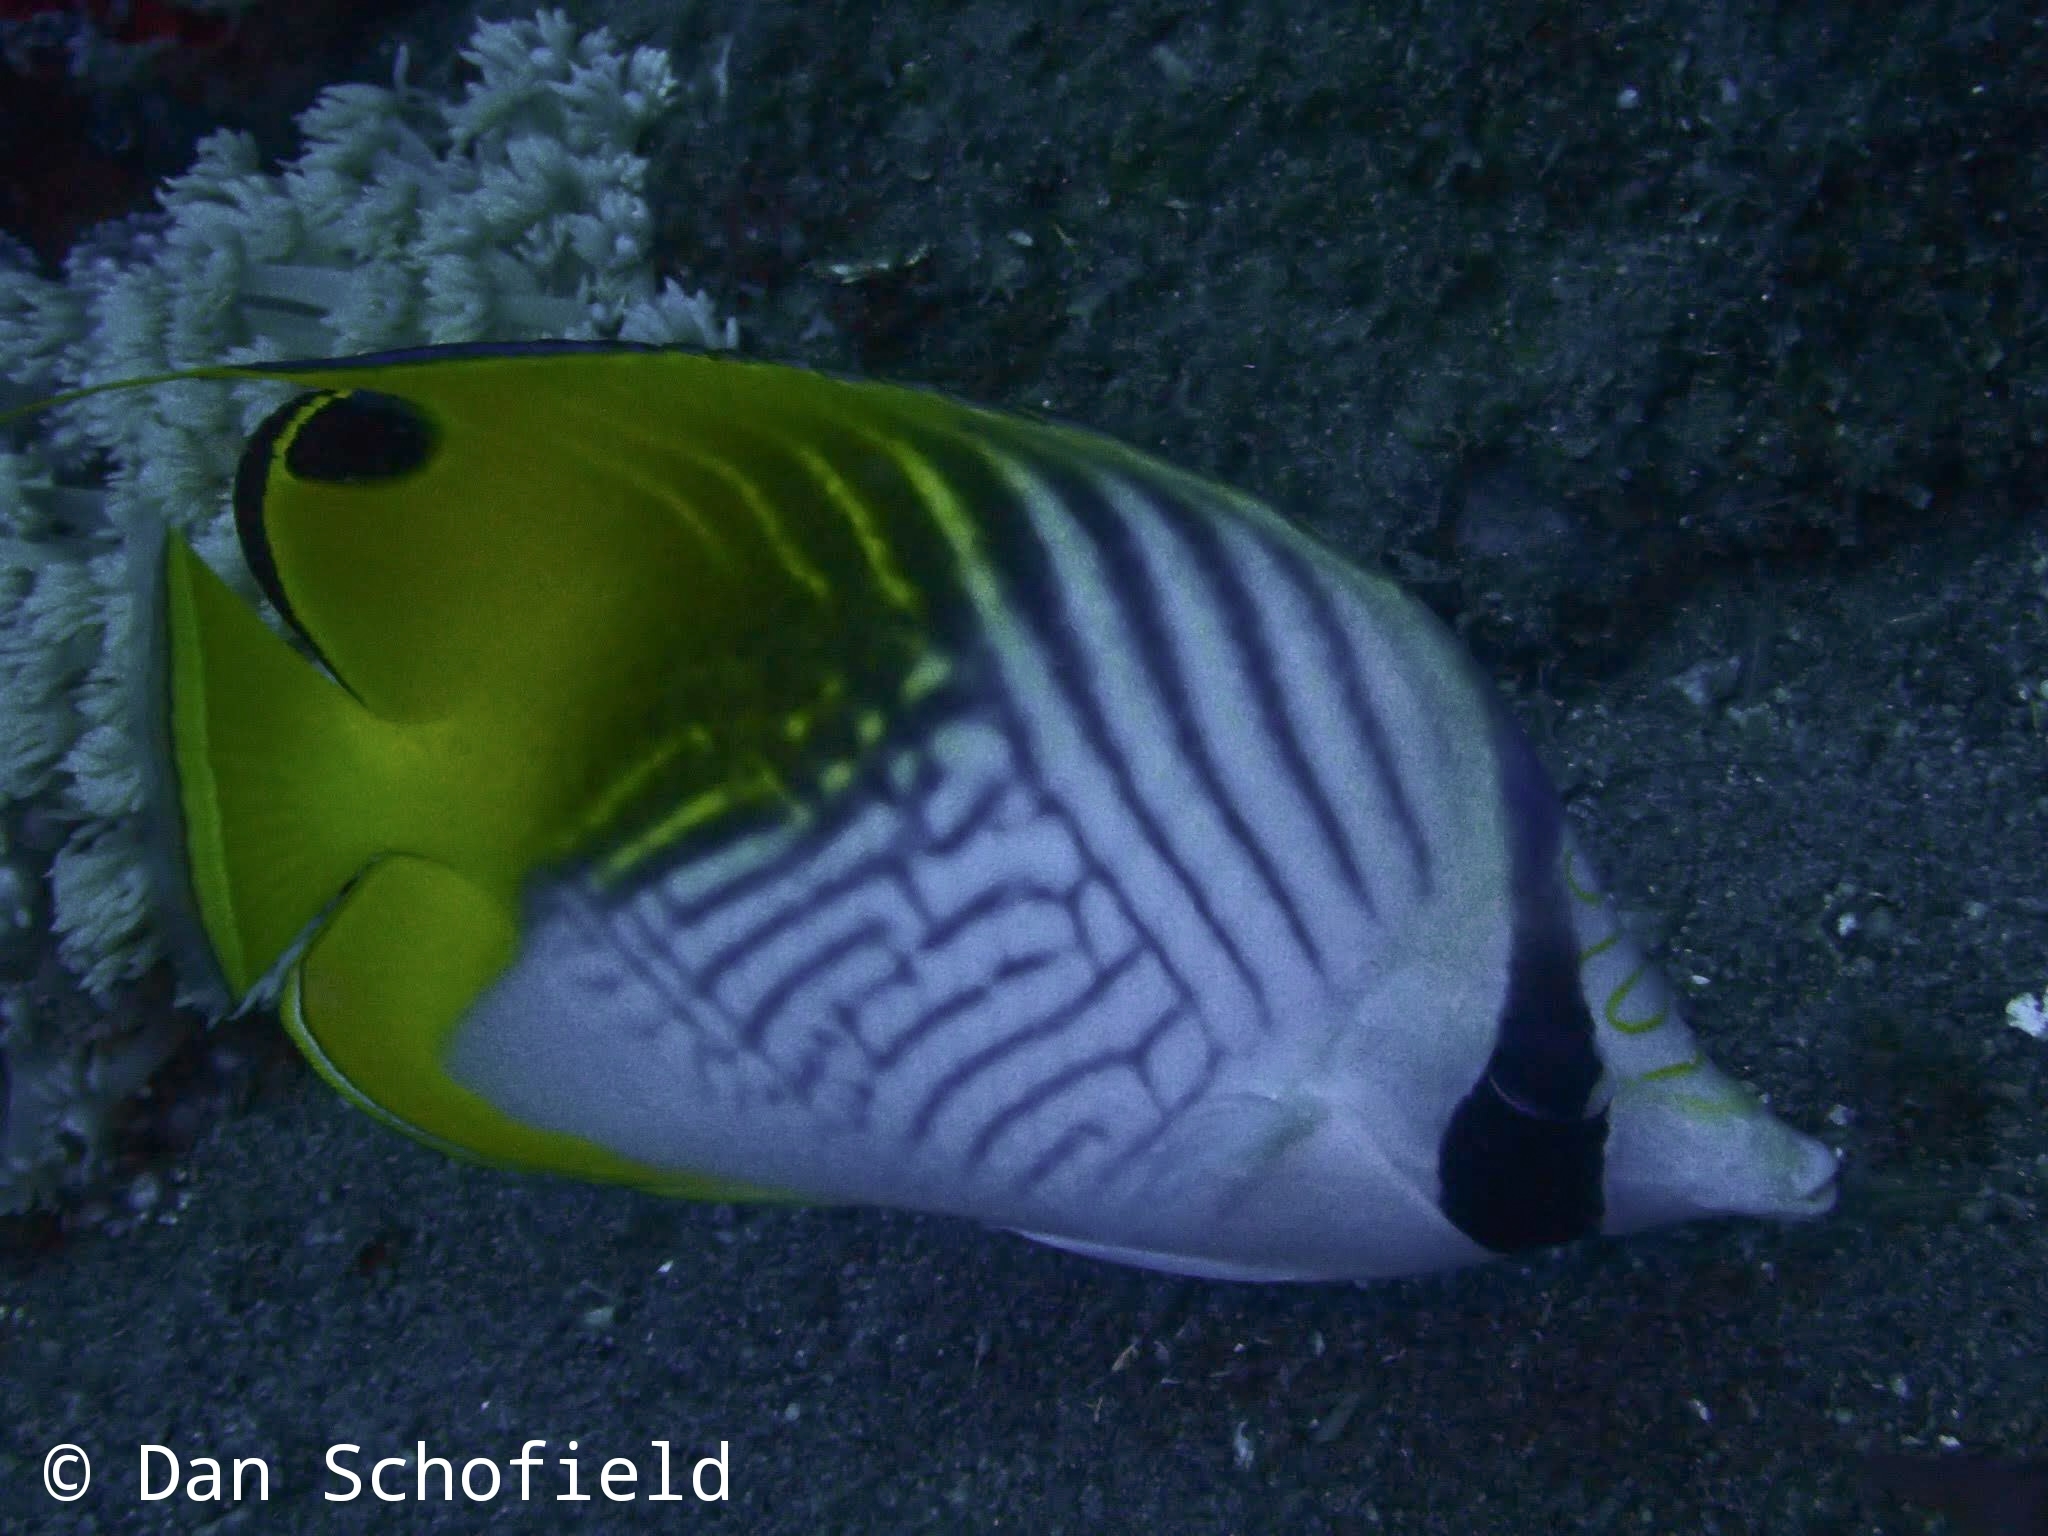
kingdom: Animalia
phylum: Chordata
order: Perciformes
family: Chaetodontidae
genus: Chaetodon
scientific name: Chaetodon auriga
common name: Threadfin butterflyfish
